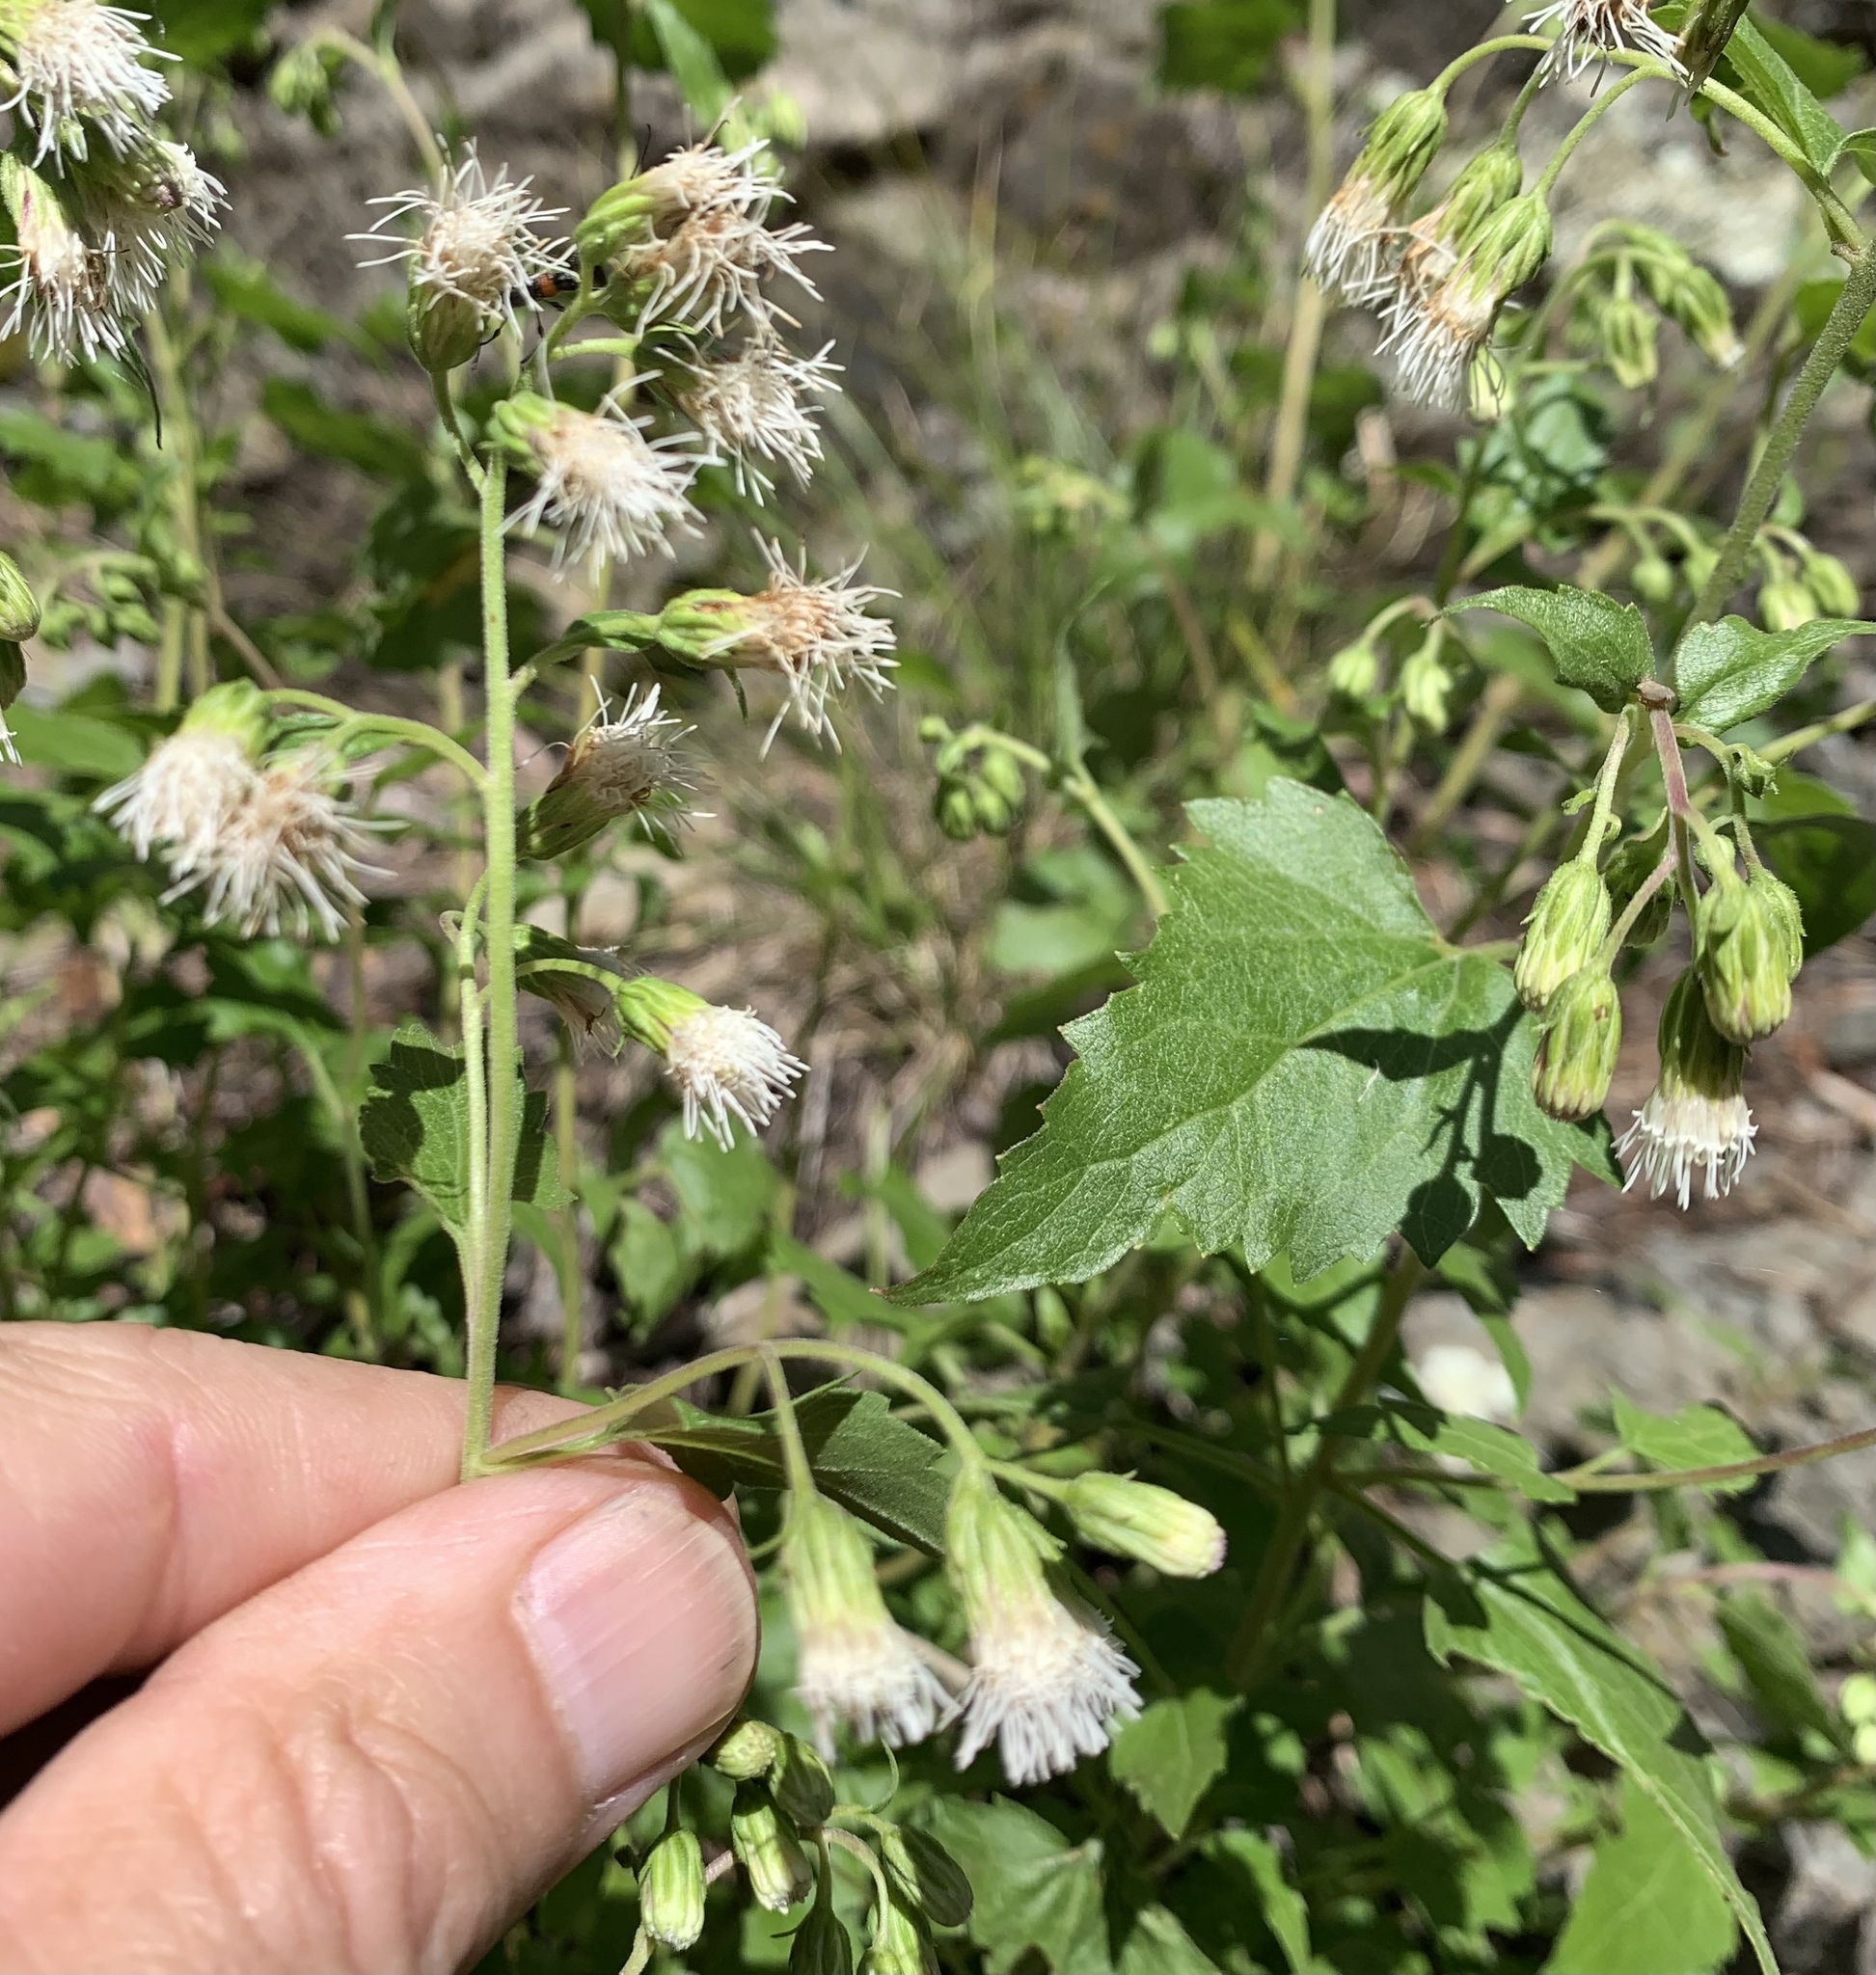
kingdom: Plantae
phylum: Tracheophyta
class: Magnoliopsida
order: Asterales
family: Asteraceae
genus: Brickelliastrum
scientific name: Brickelliastrum fendleri
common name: Fendler's-brickellbush
